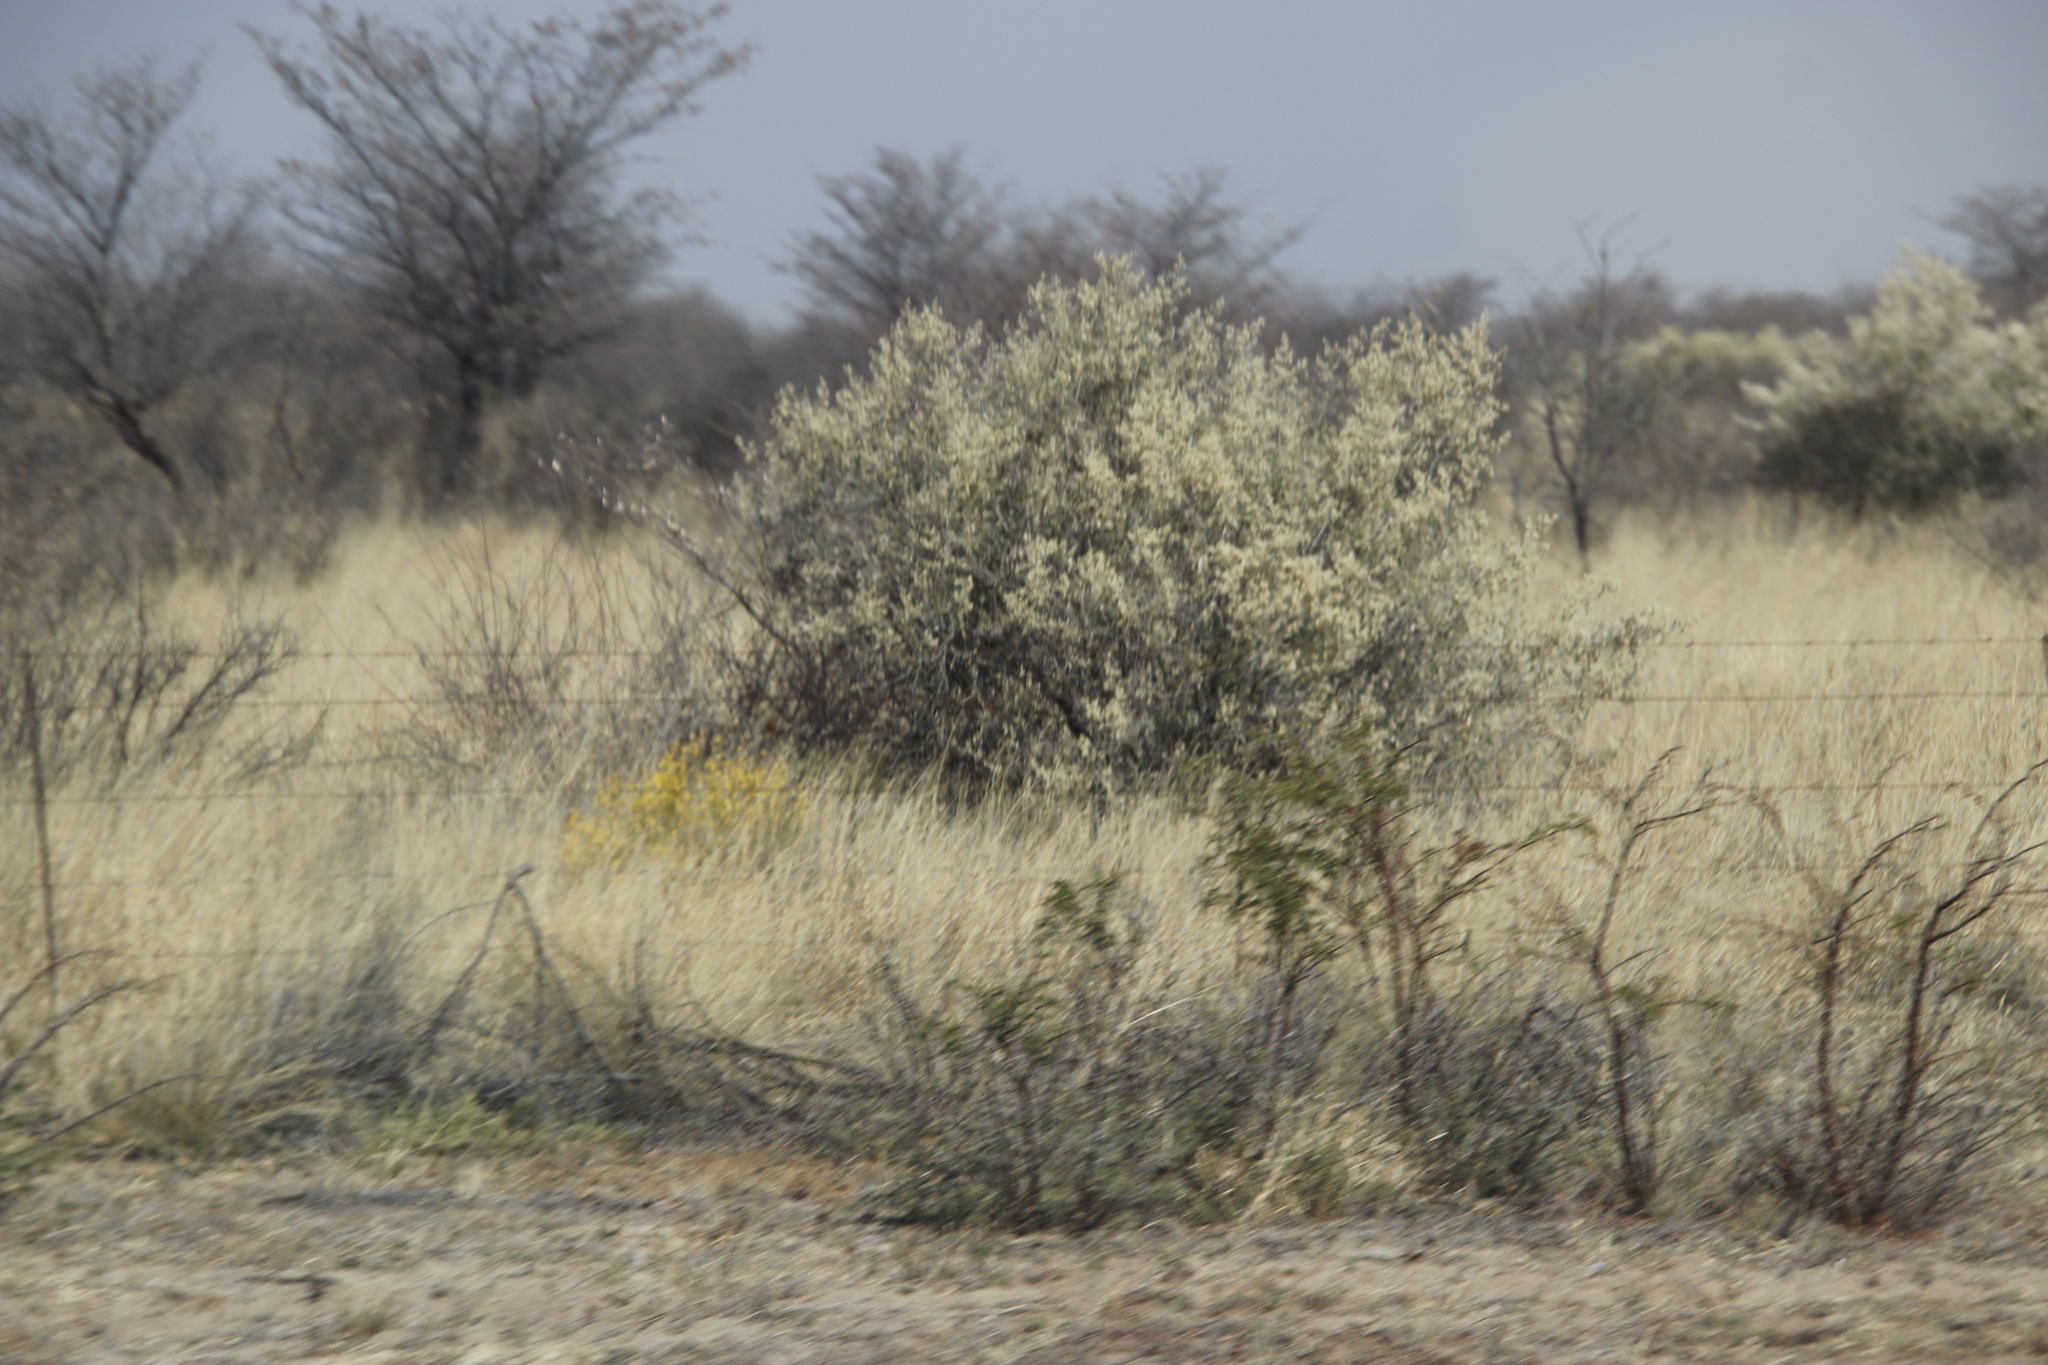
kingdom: Plantae
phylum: Tracheophyta
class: Magnoliopsida
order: Fabales
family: Fabaceae
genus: Senegalia
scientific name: Senegalia mellifera
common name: Hookthorn
